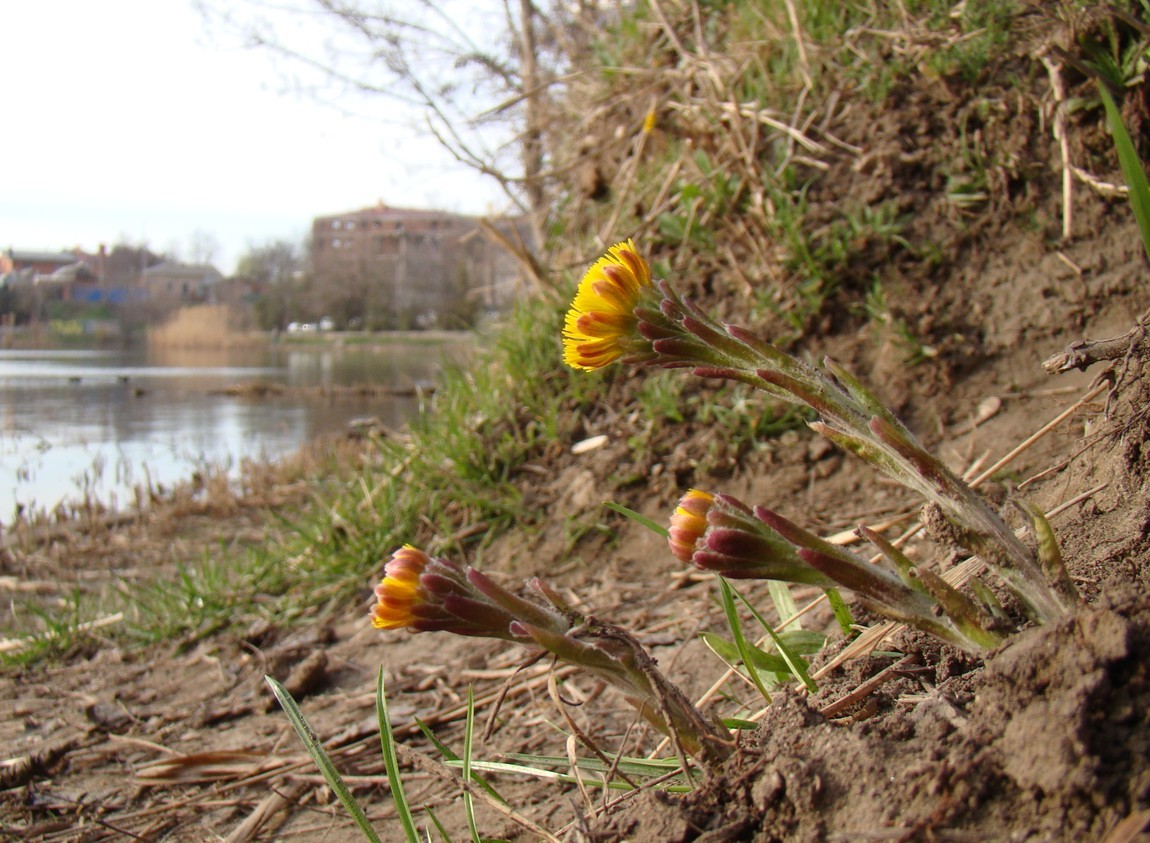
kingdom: Plantae
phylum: Tracheophyta
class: Magnoliopsida
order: Asterales
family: Asteraceae
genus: Tussilago
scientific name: Tussilago farfara
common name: Coltsfoot
